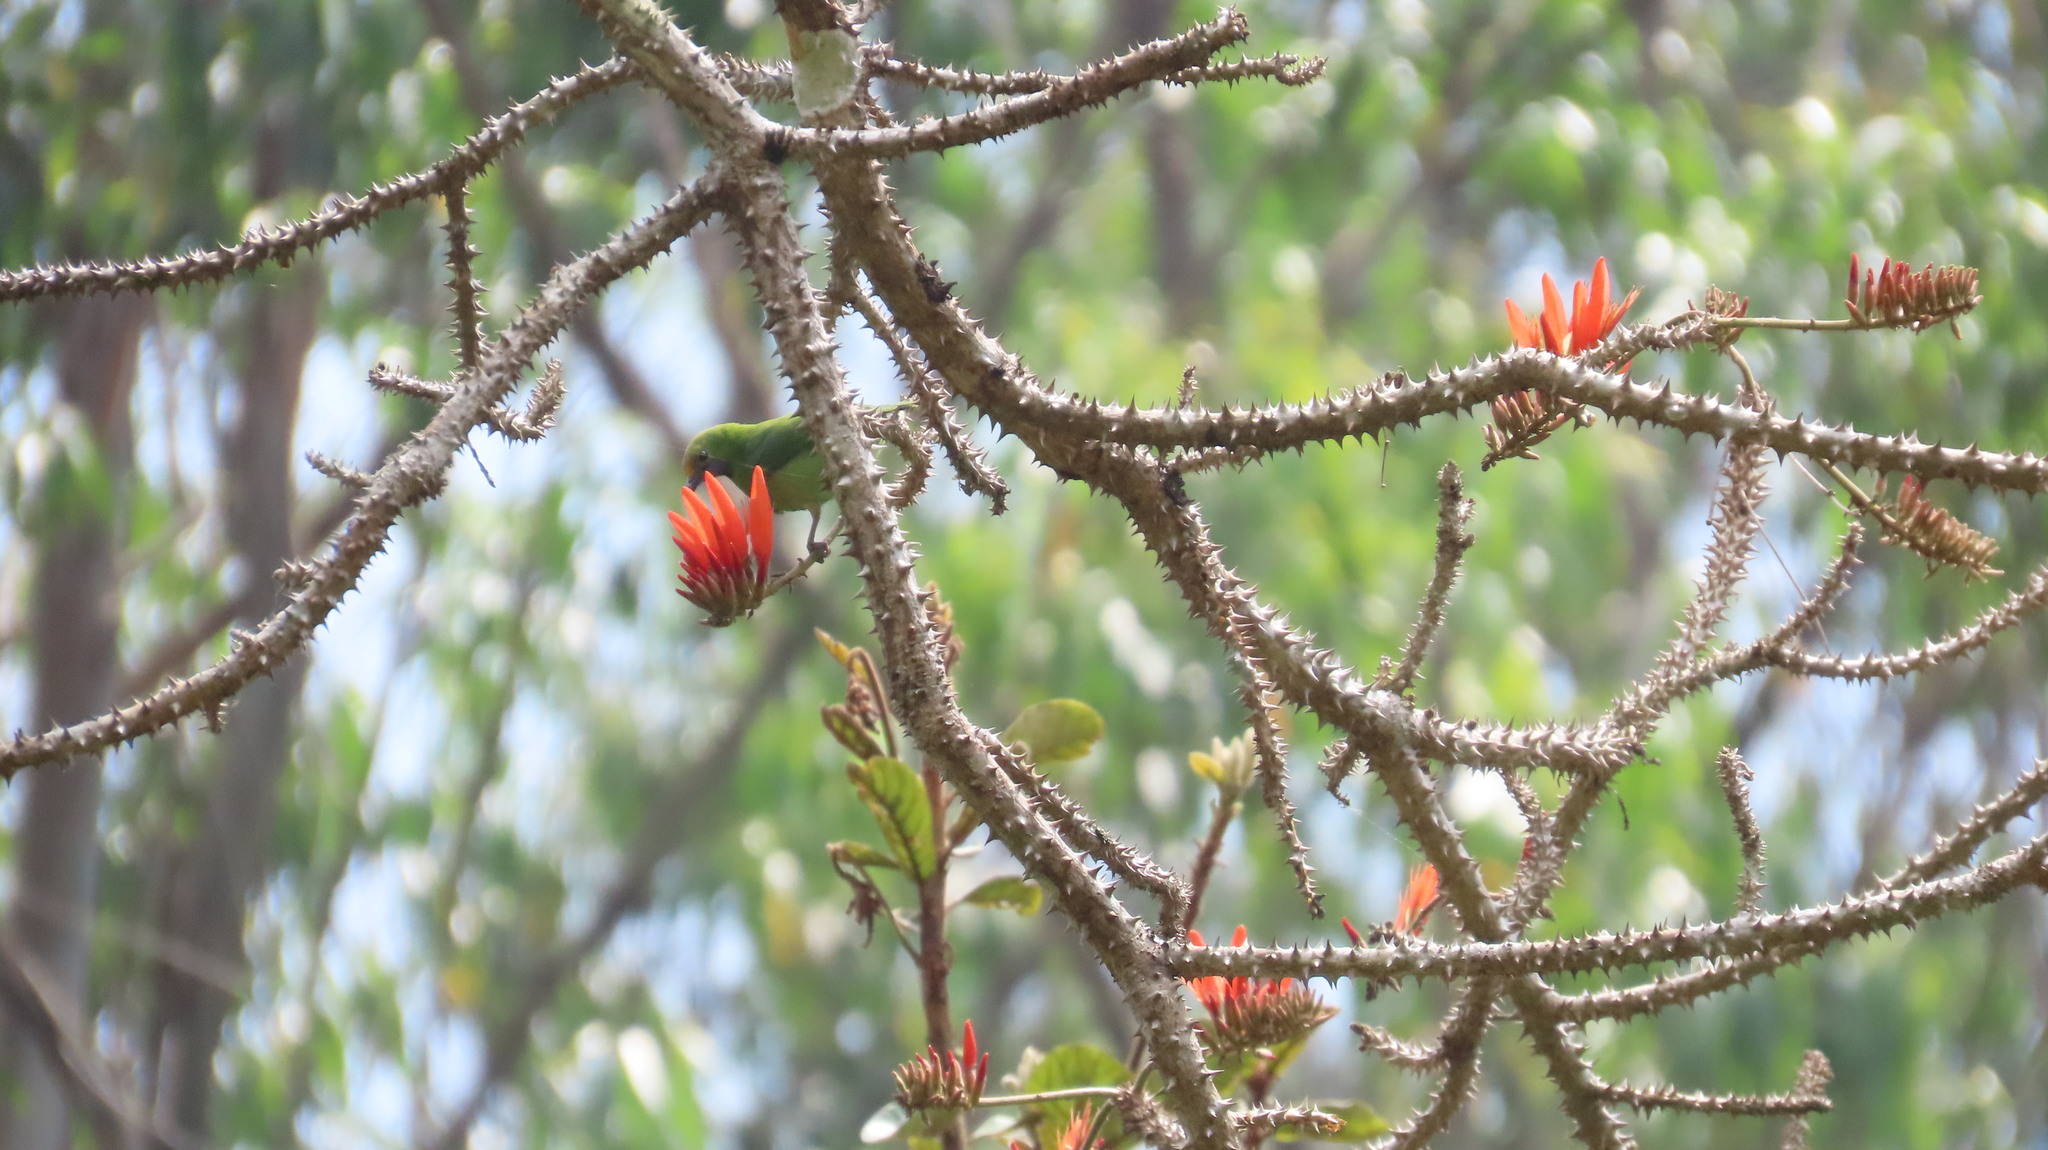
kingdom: Animalia
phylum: Chordata
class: Aves
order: Passeriformes
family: Chloropseidae
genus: Chloropsis
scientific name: Chloropsis aurifrons
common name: Golden-fronted leafbird
